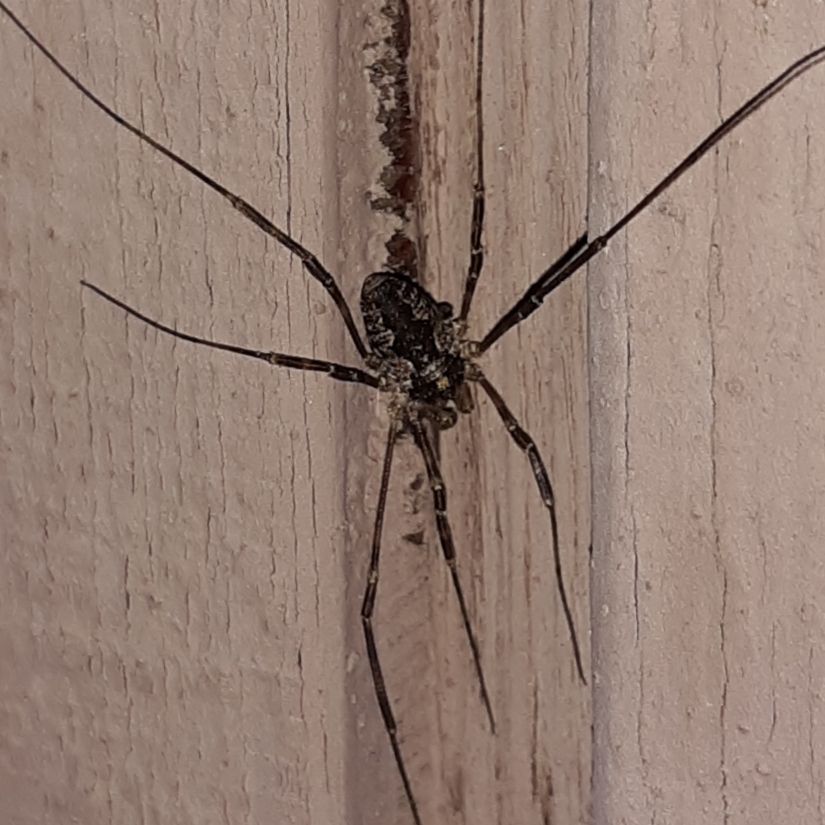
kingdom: Animalia
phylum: Arthropoda
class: Arachnida
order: Opiliones
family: Phalangiidae
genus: Odiellus
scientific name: Odiellus pictus
